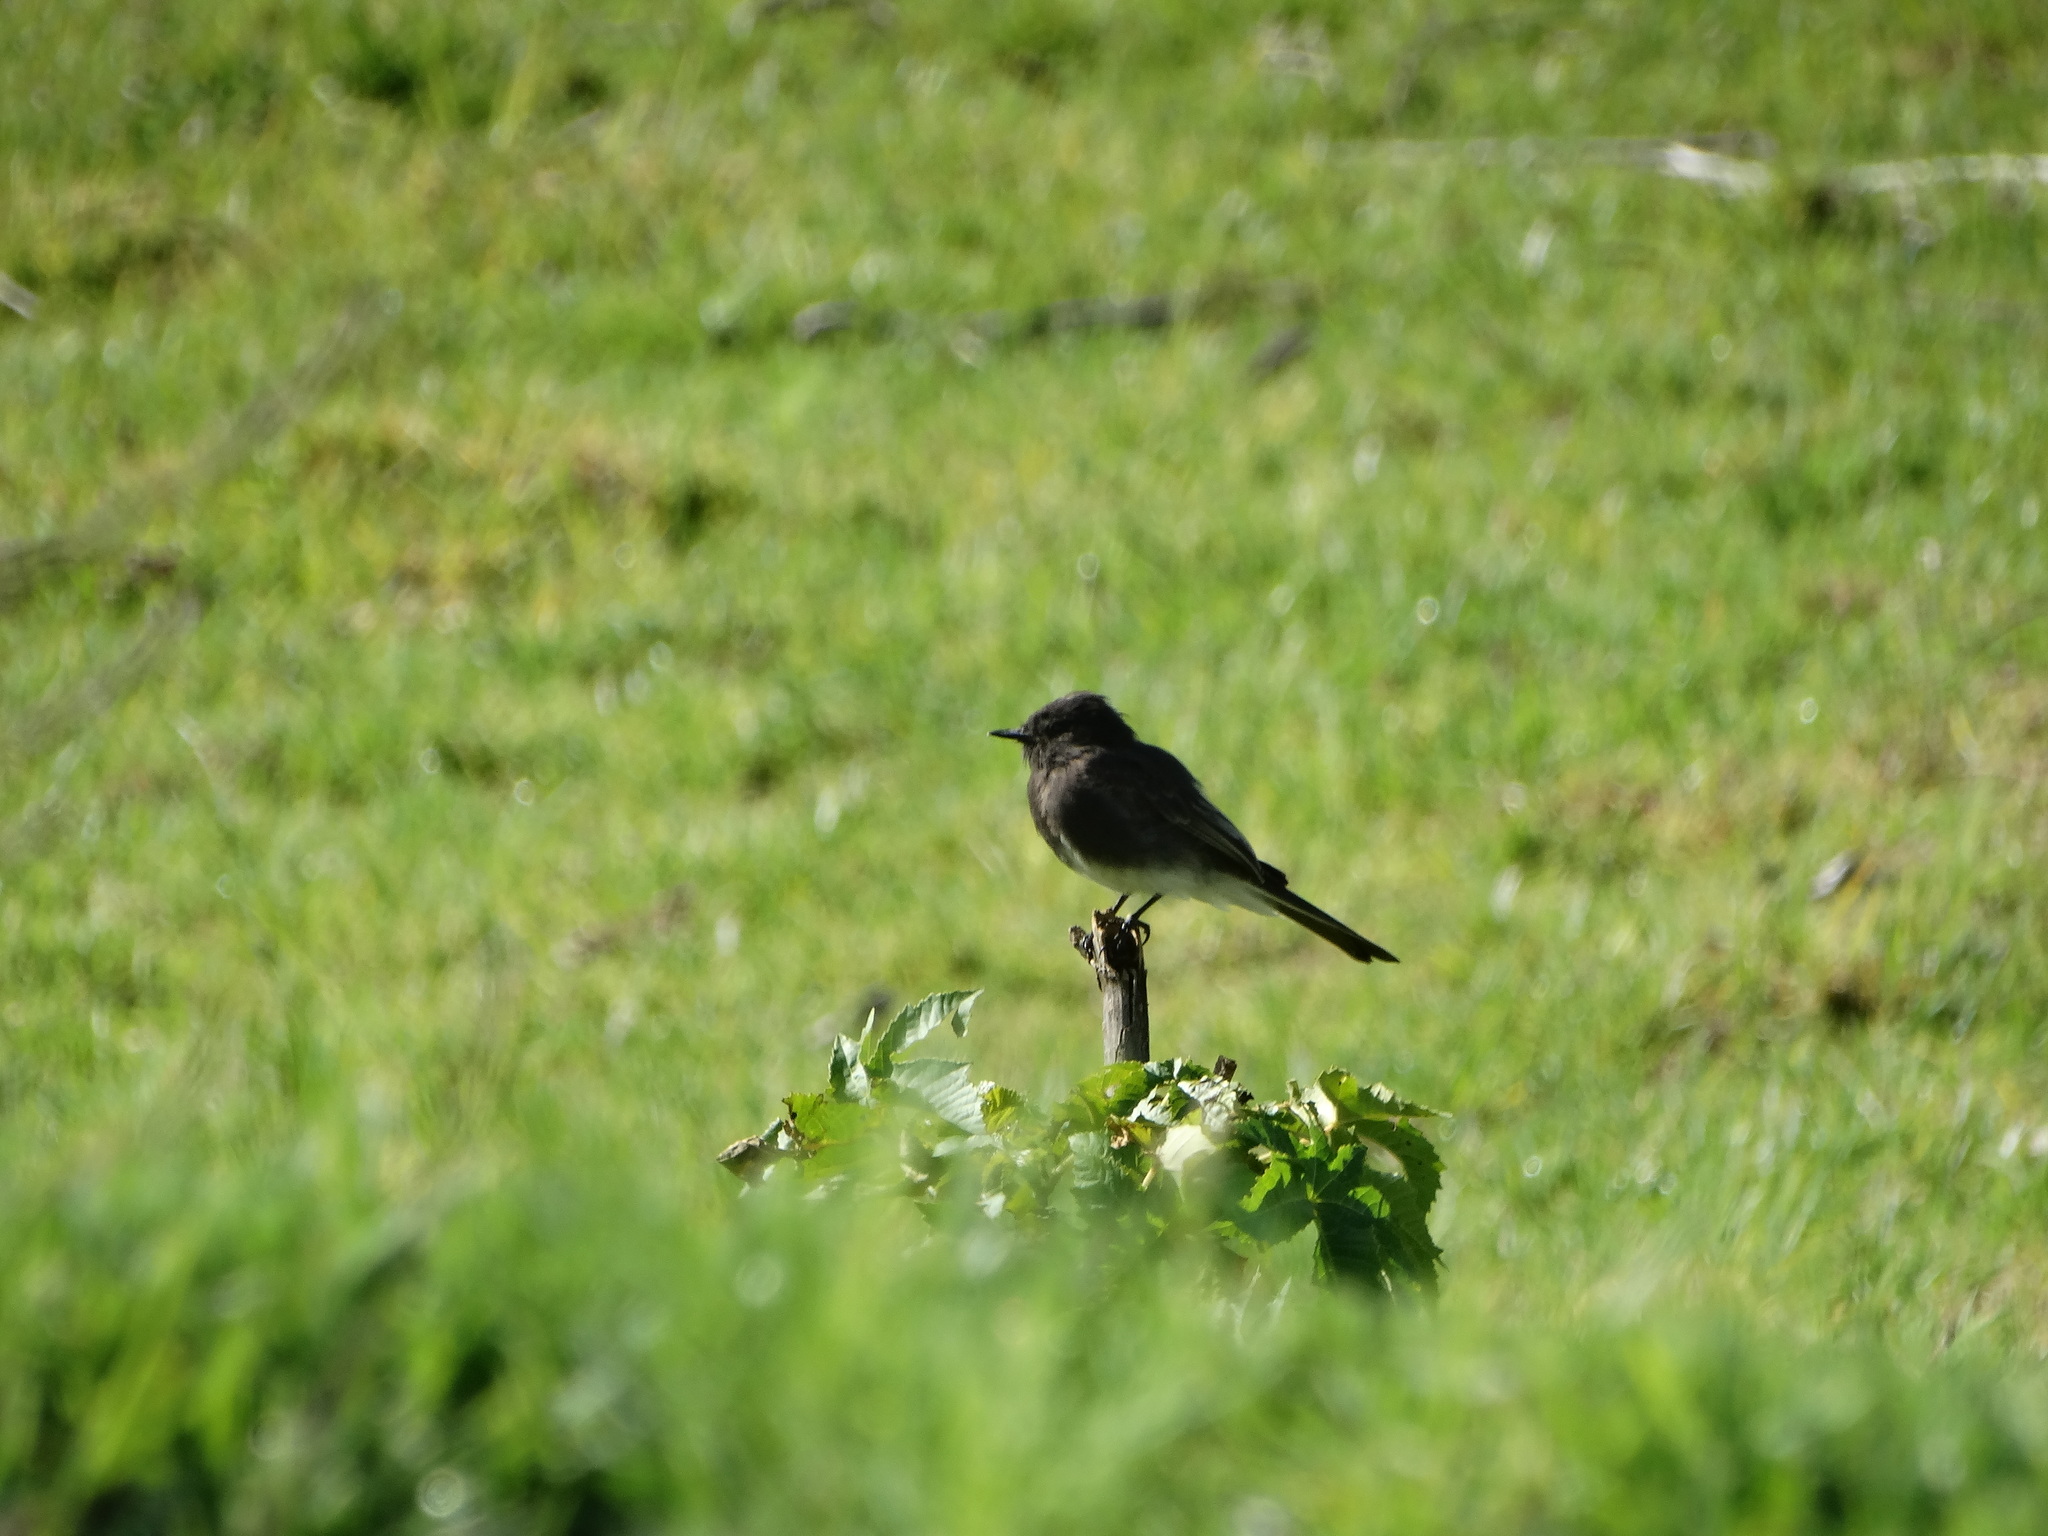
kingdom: Animalia
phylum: Chordata
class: Aves
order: Passeriformes
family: Tyrannidae
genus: Sayornis
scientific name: Sayornis nigricans
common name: Black phoebe
